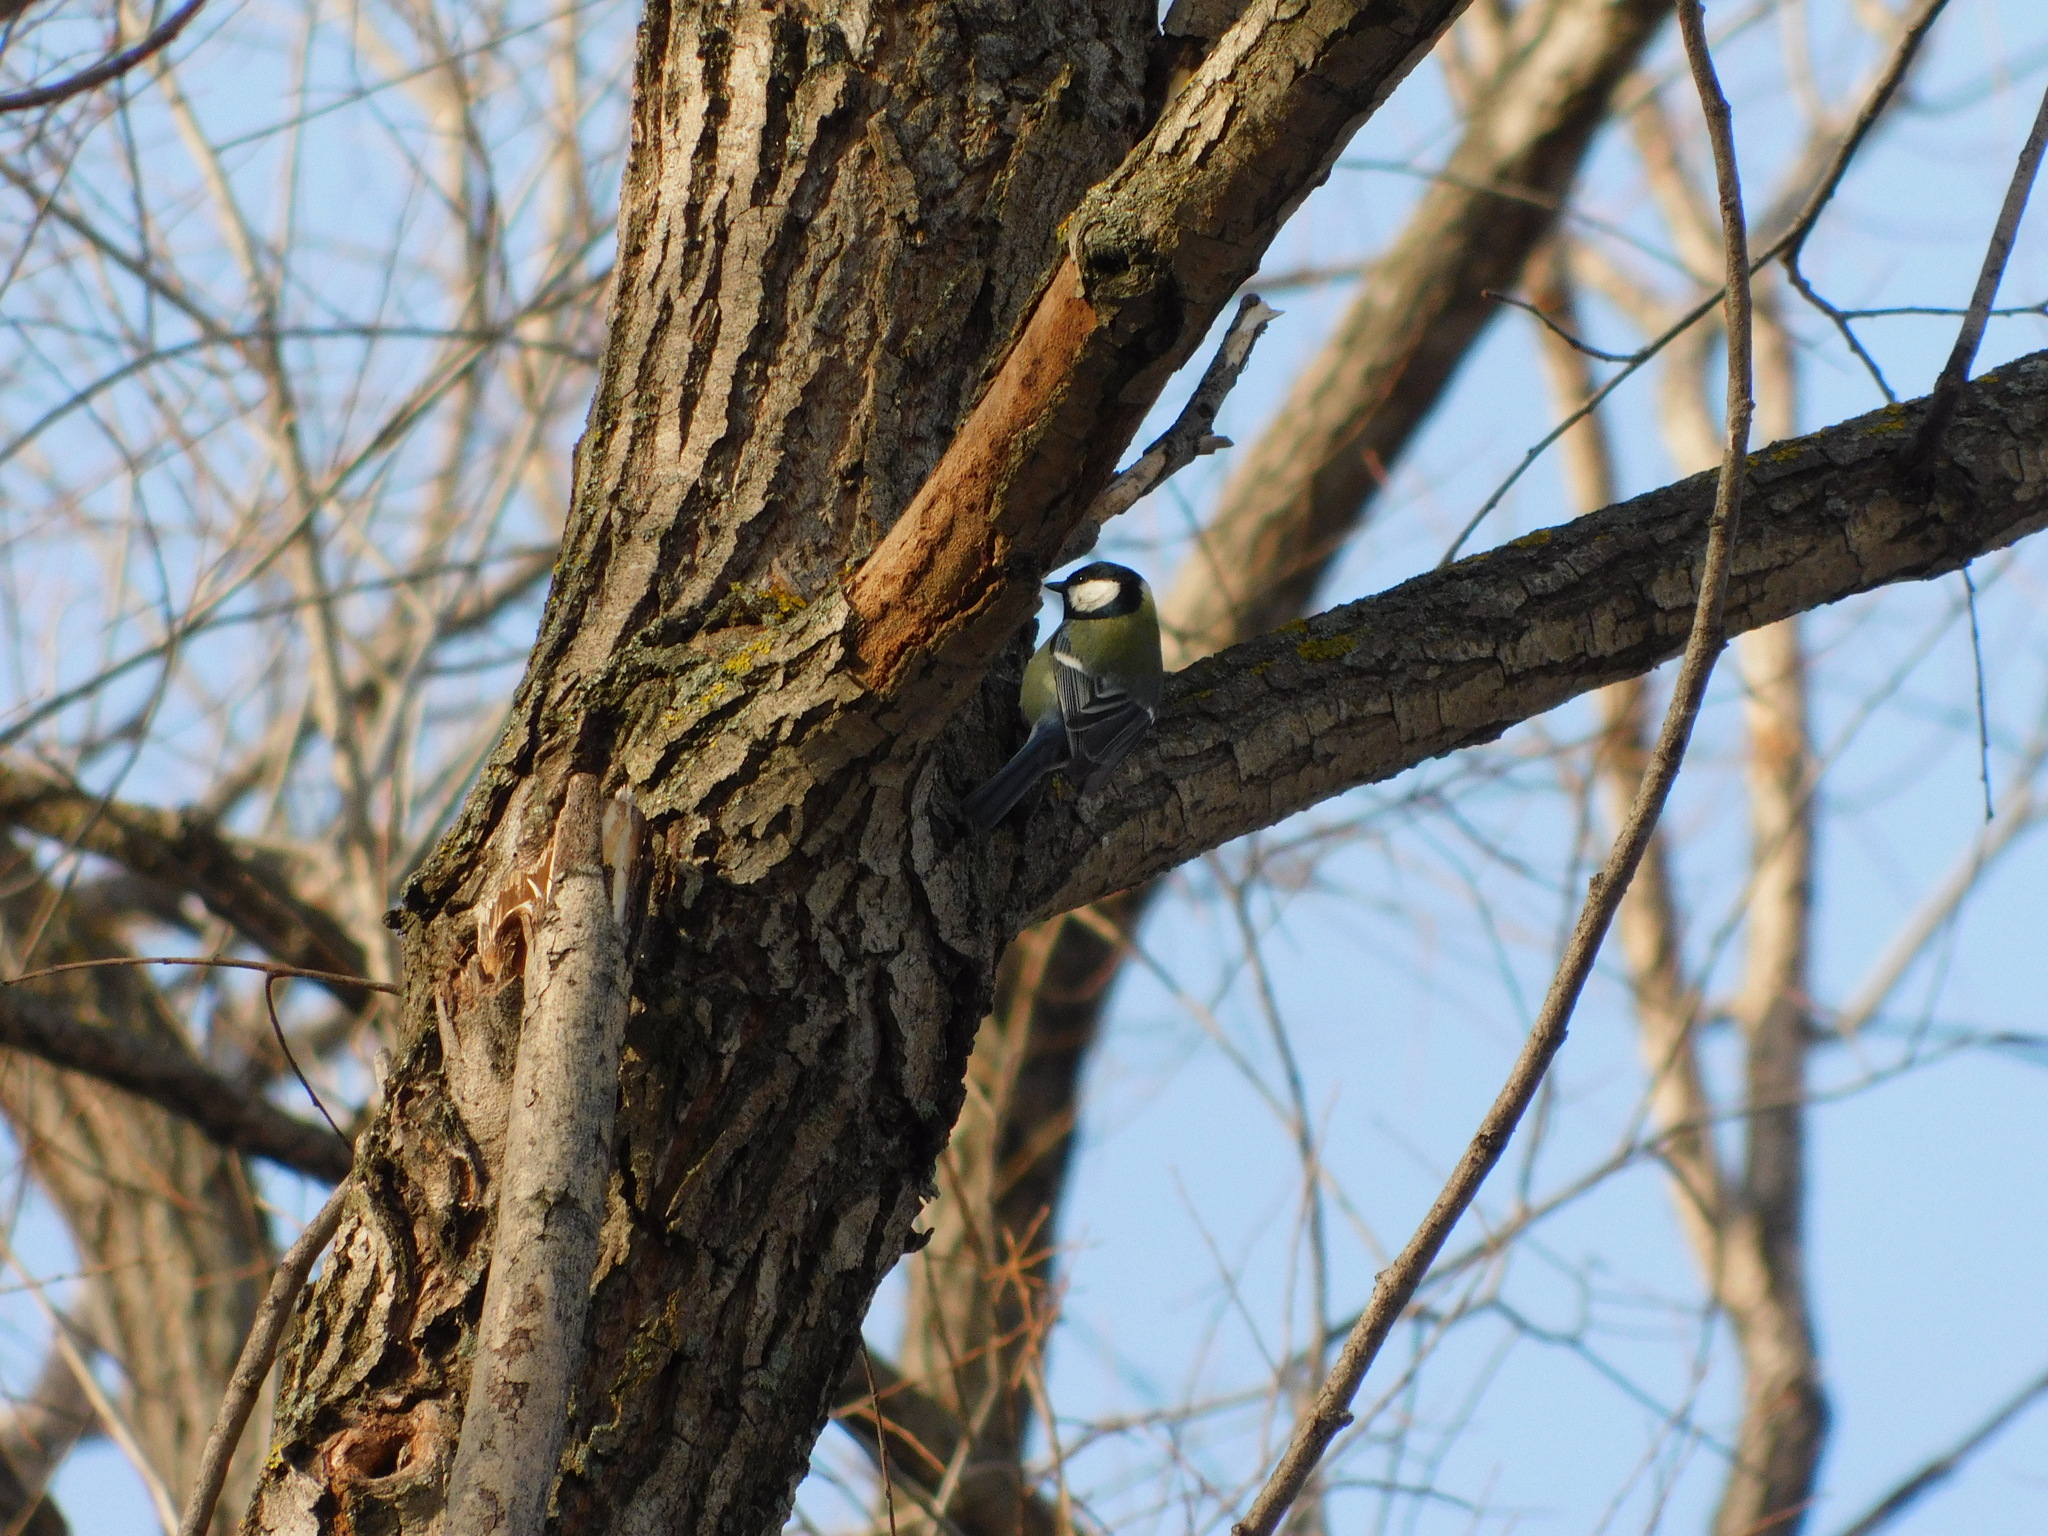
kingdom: Animalia
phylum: Chordata
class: Aves
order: Passeriformes
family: Paridae
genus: Parus
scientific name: Parus major
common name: Great tit
